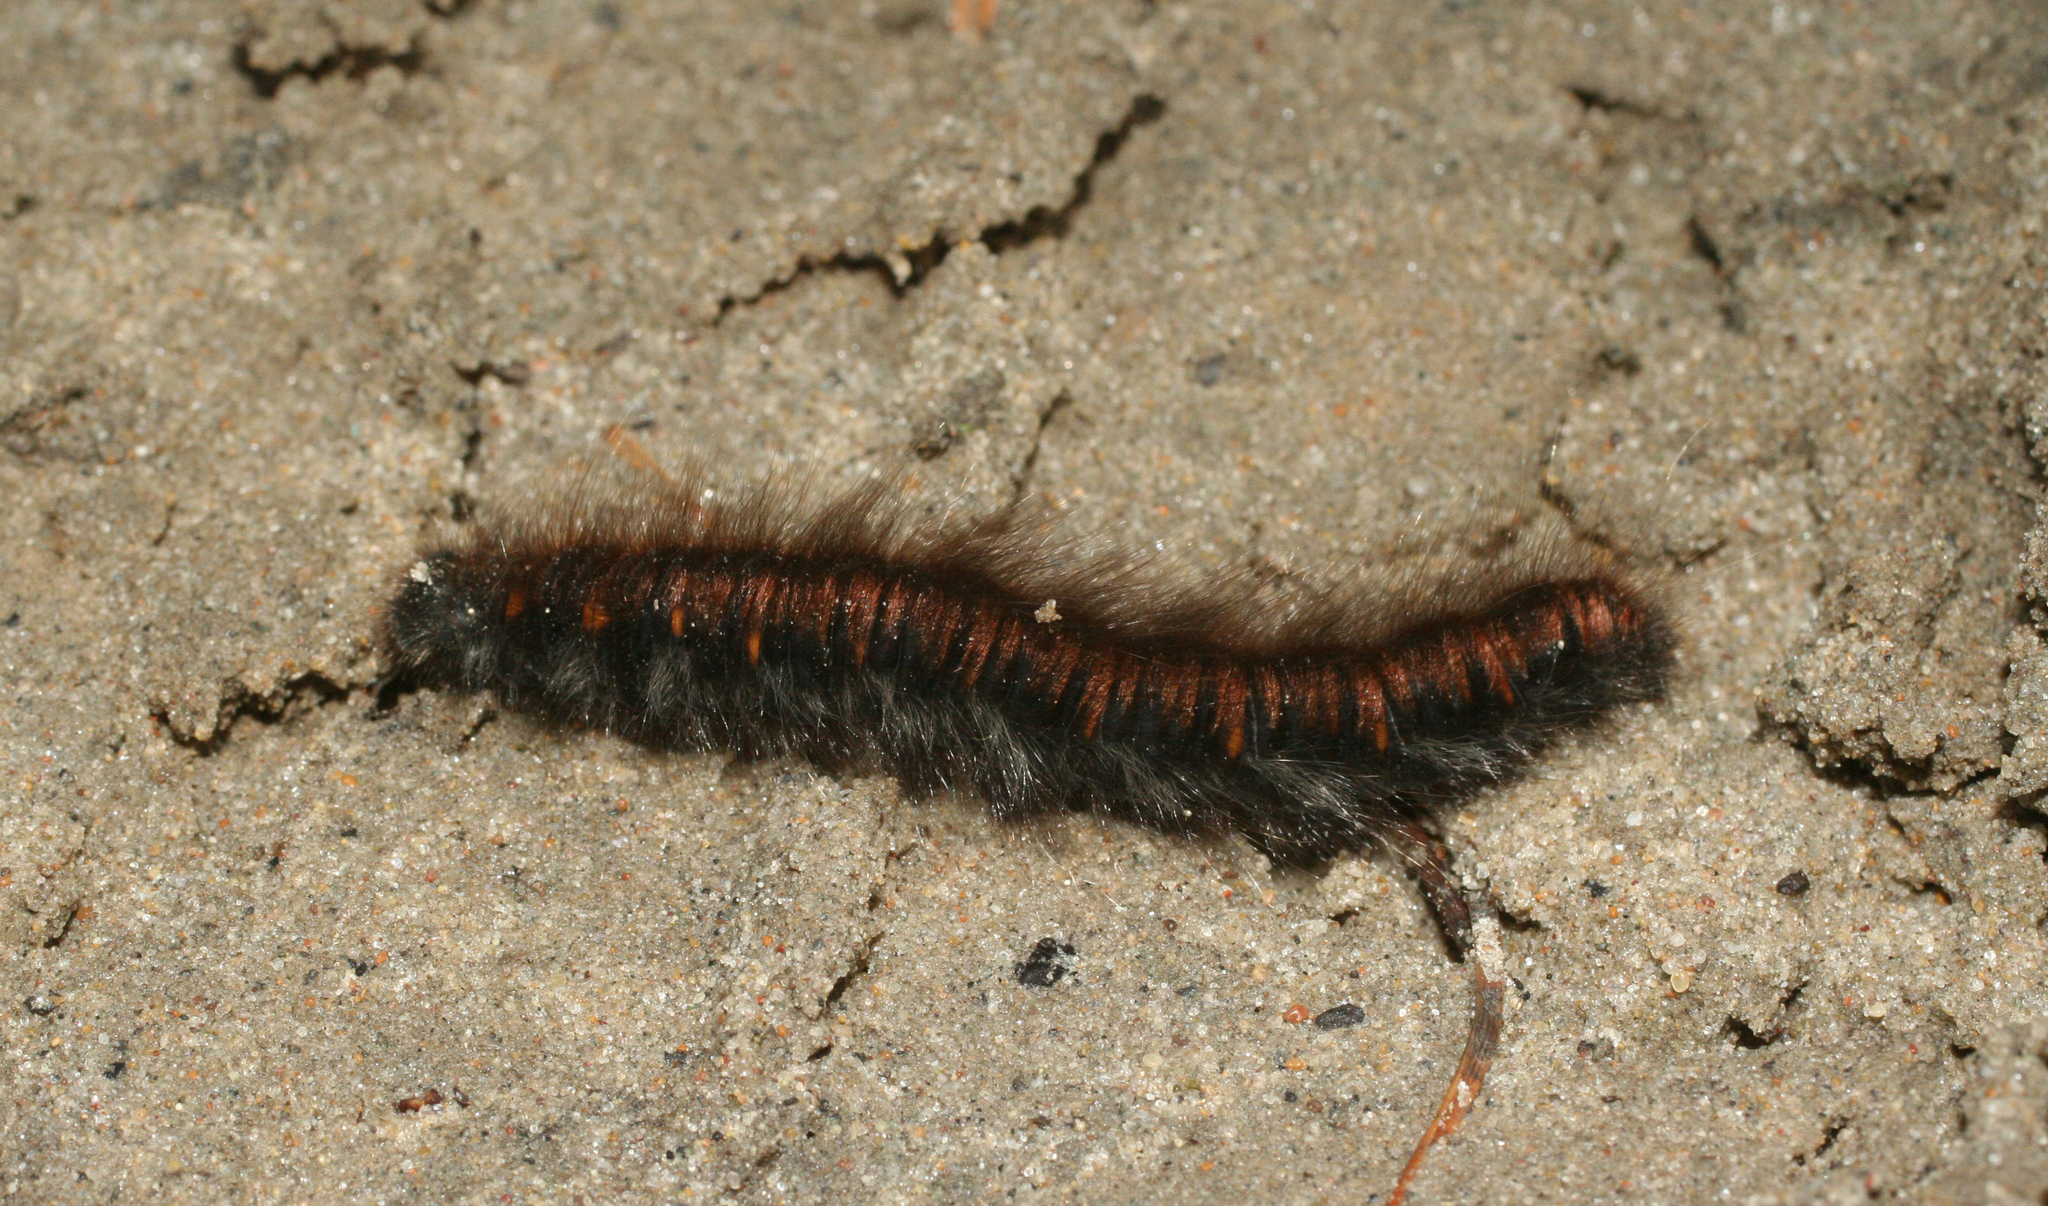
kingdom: Animalia
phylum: Arthropoda
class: Insecta
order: Lepidoptera
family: Lasiocampidae
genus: Macrothylacia
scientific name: Macrothylacia rubi
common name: Fox moth
